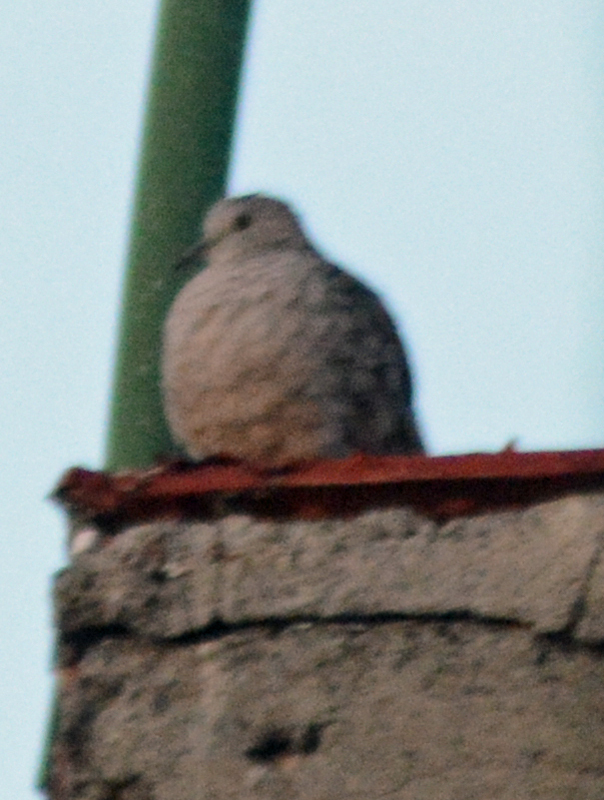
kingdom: Animalia
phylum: Chordata
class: Aves
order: Columbiformes
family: Columbidae
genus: Columbina
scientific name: Columbina inca
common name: Inca dove
